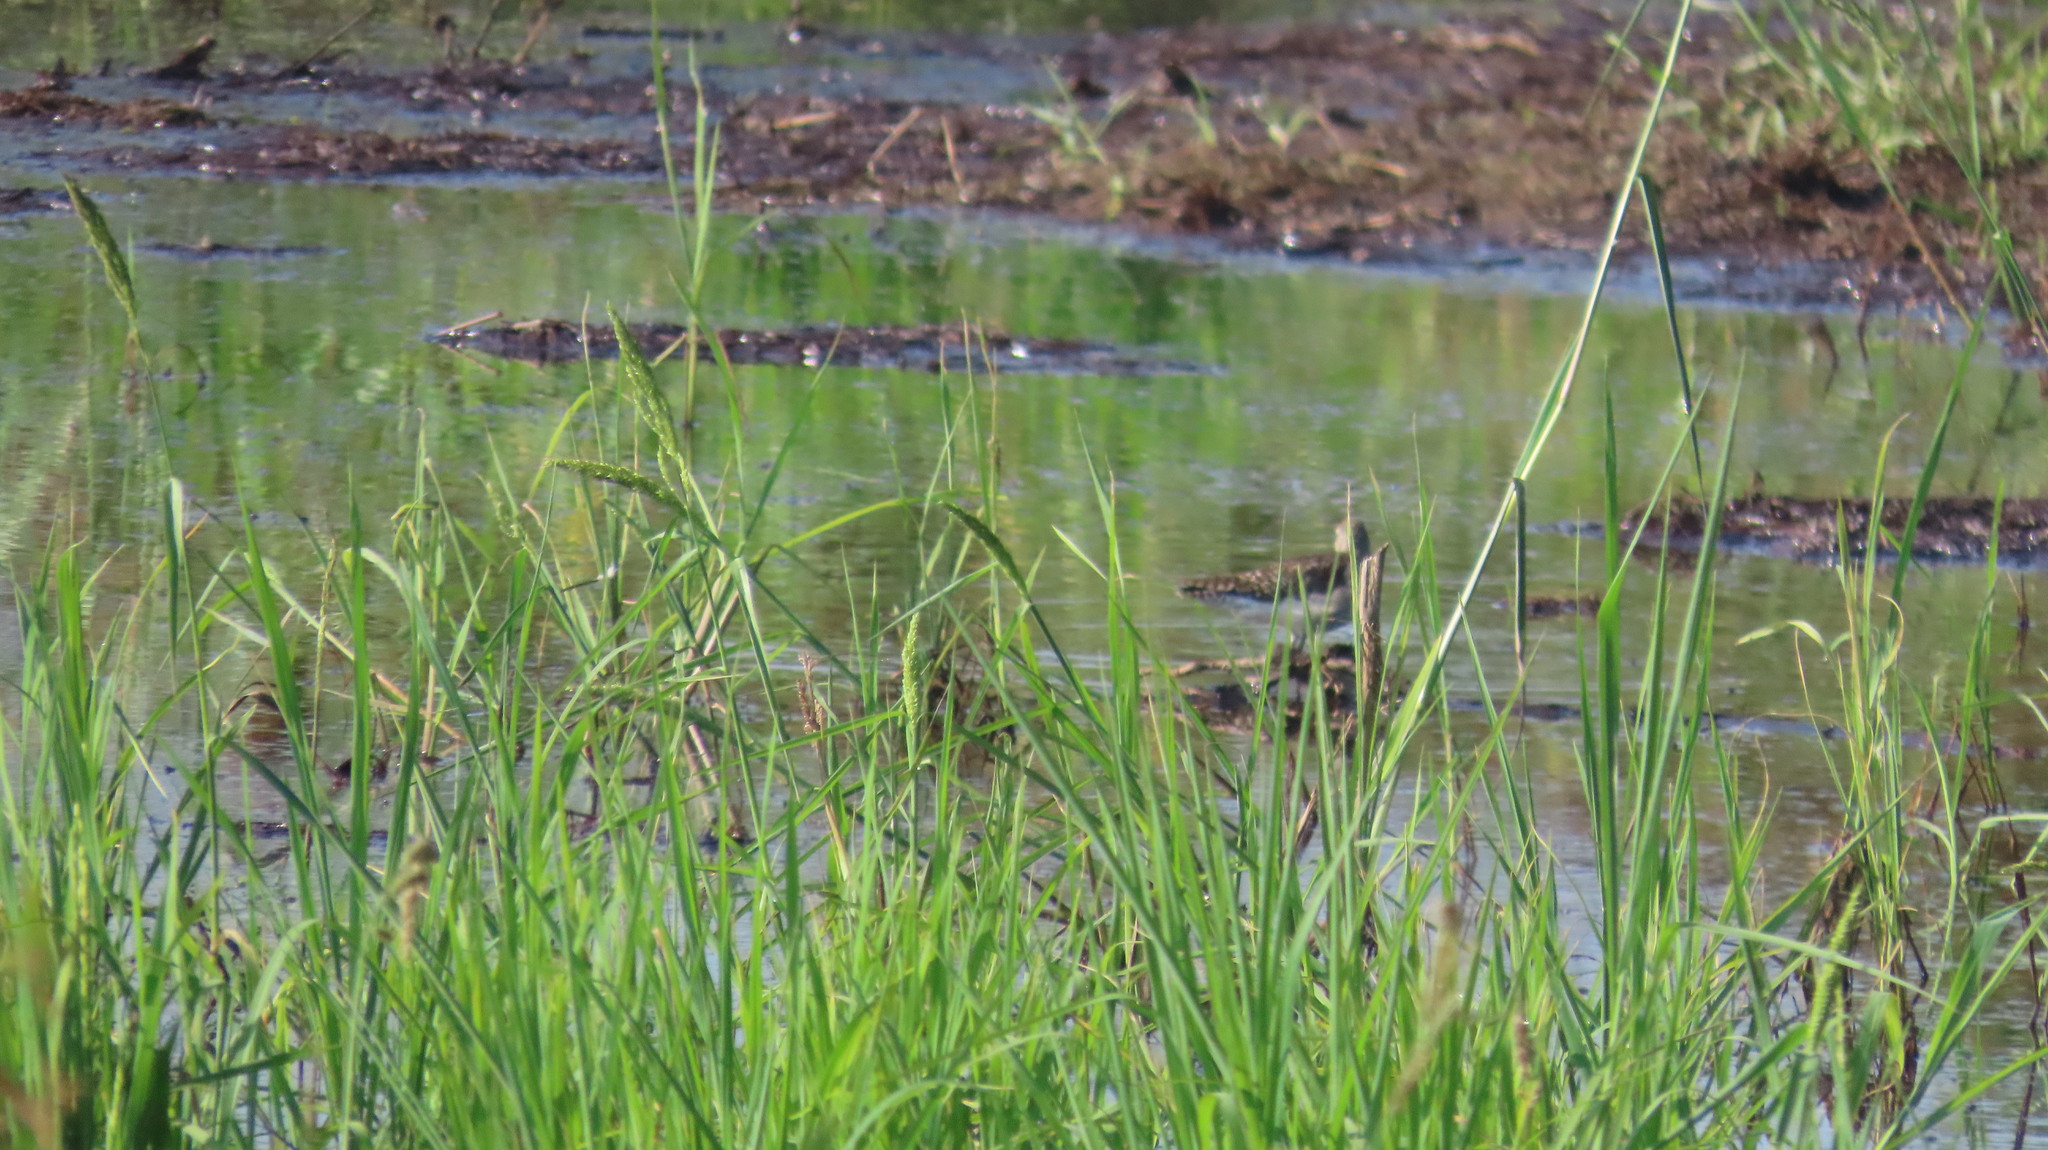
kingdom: Animalia
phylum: Chordata
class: Aves
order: Charadriiformes
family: Scolopacidae
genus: Tringa
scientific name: Tringa glareola
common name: Wood sandpiper
